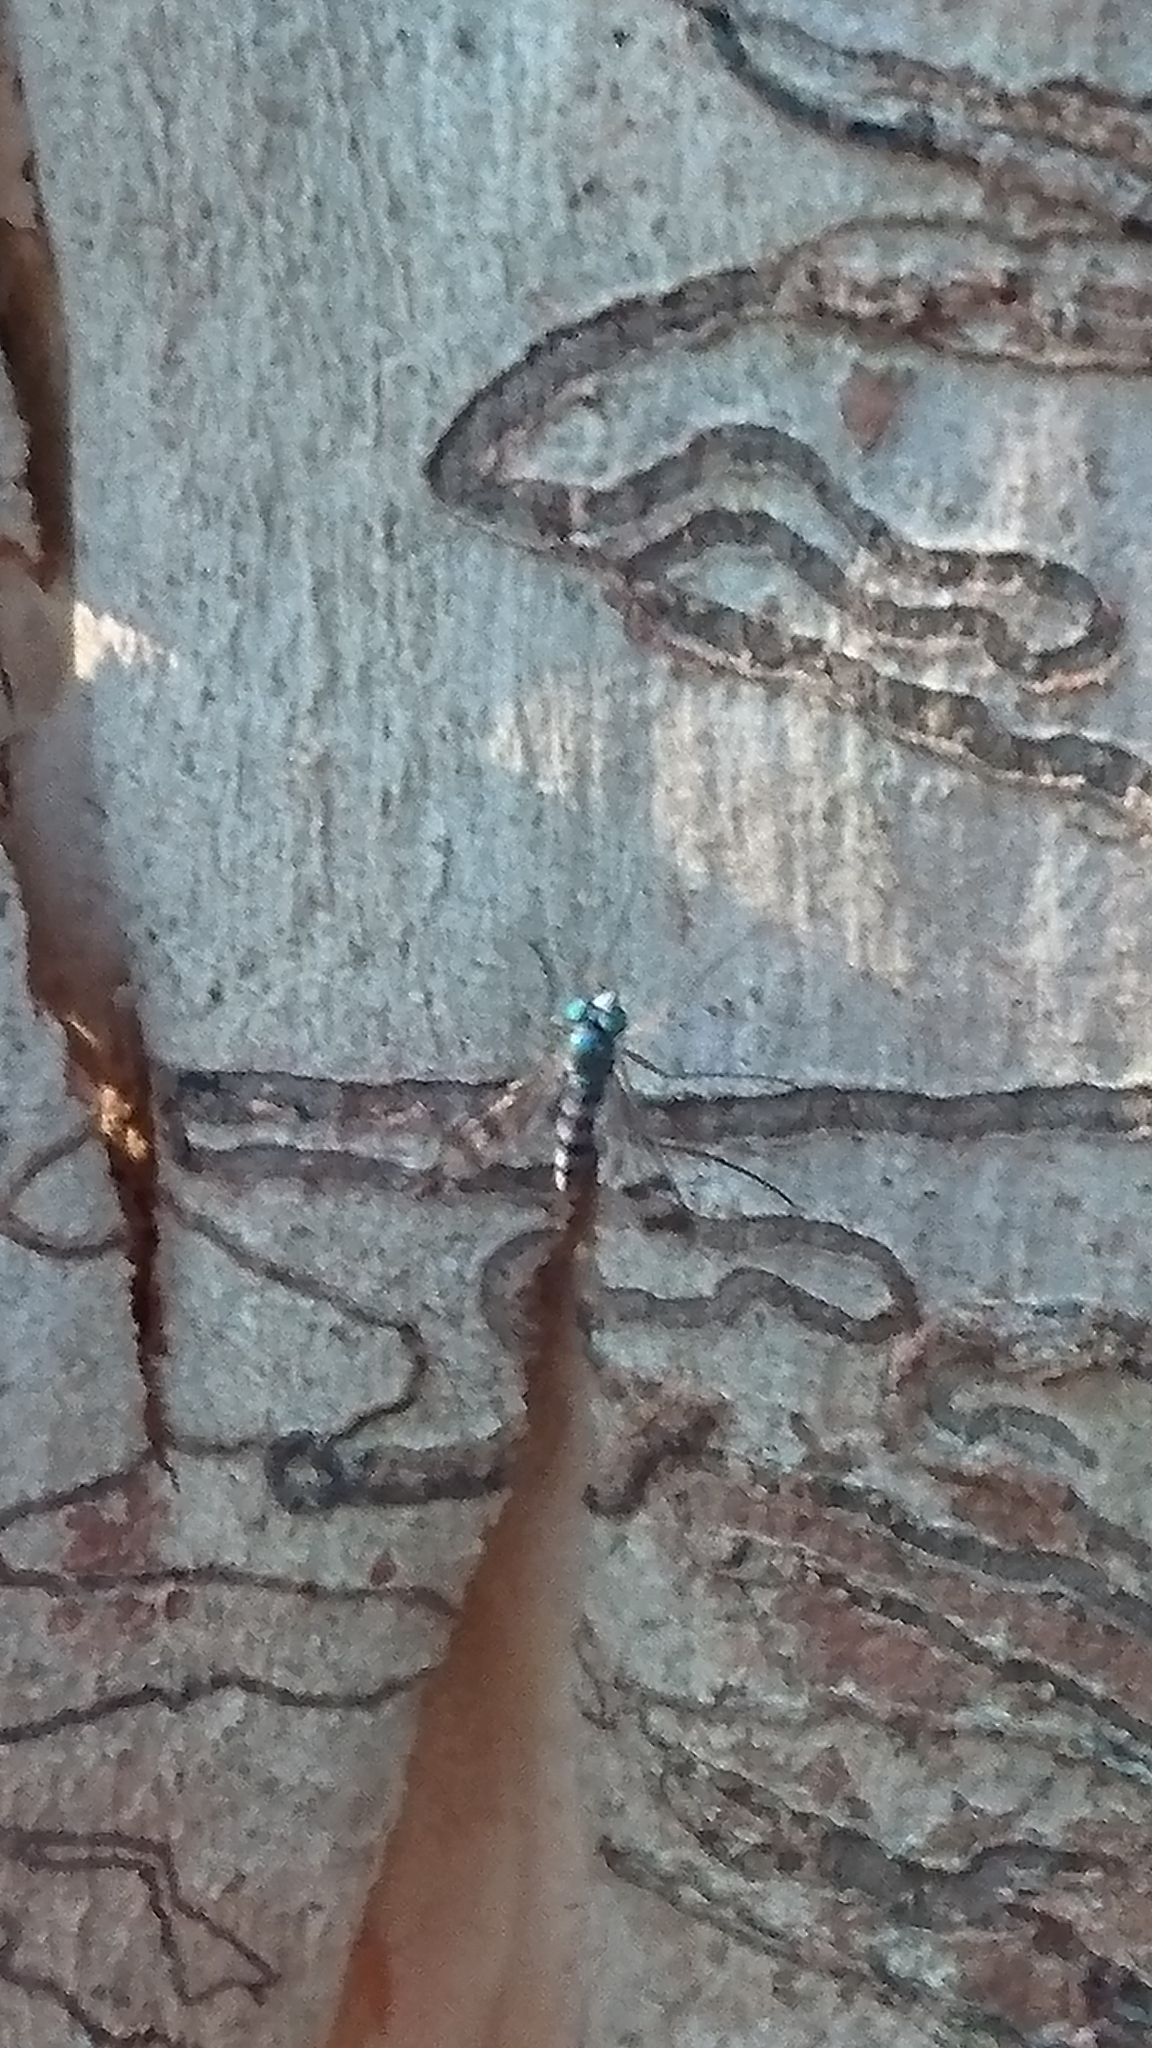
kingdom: Animalia
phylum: Arthropoda
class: Insecta
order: Diptera
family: Dolichopodidae
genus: Heteropsilopus
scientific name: Heteropsilopus squamifer
